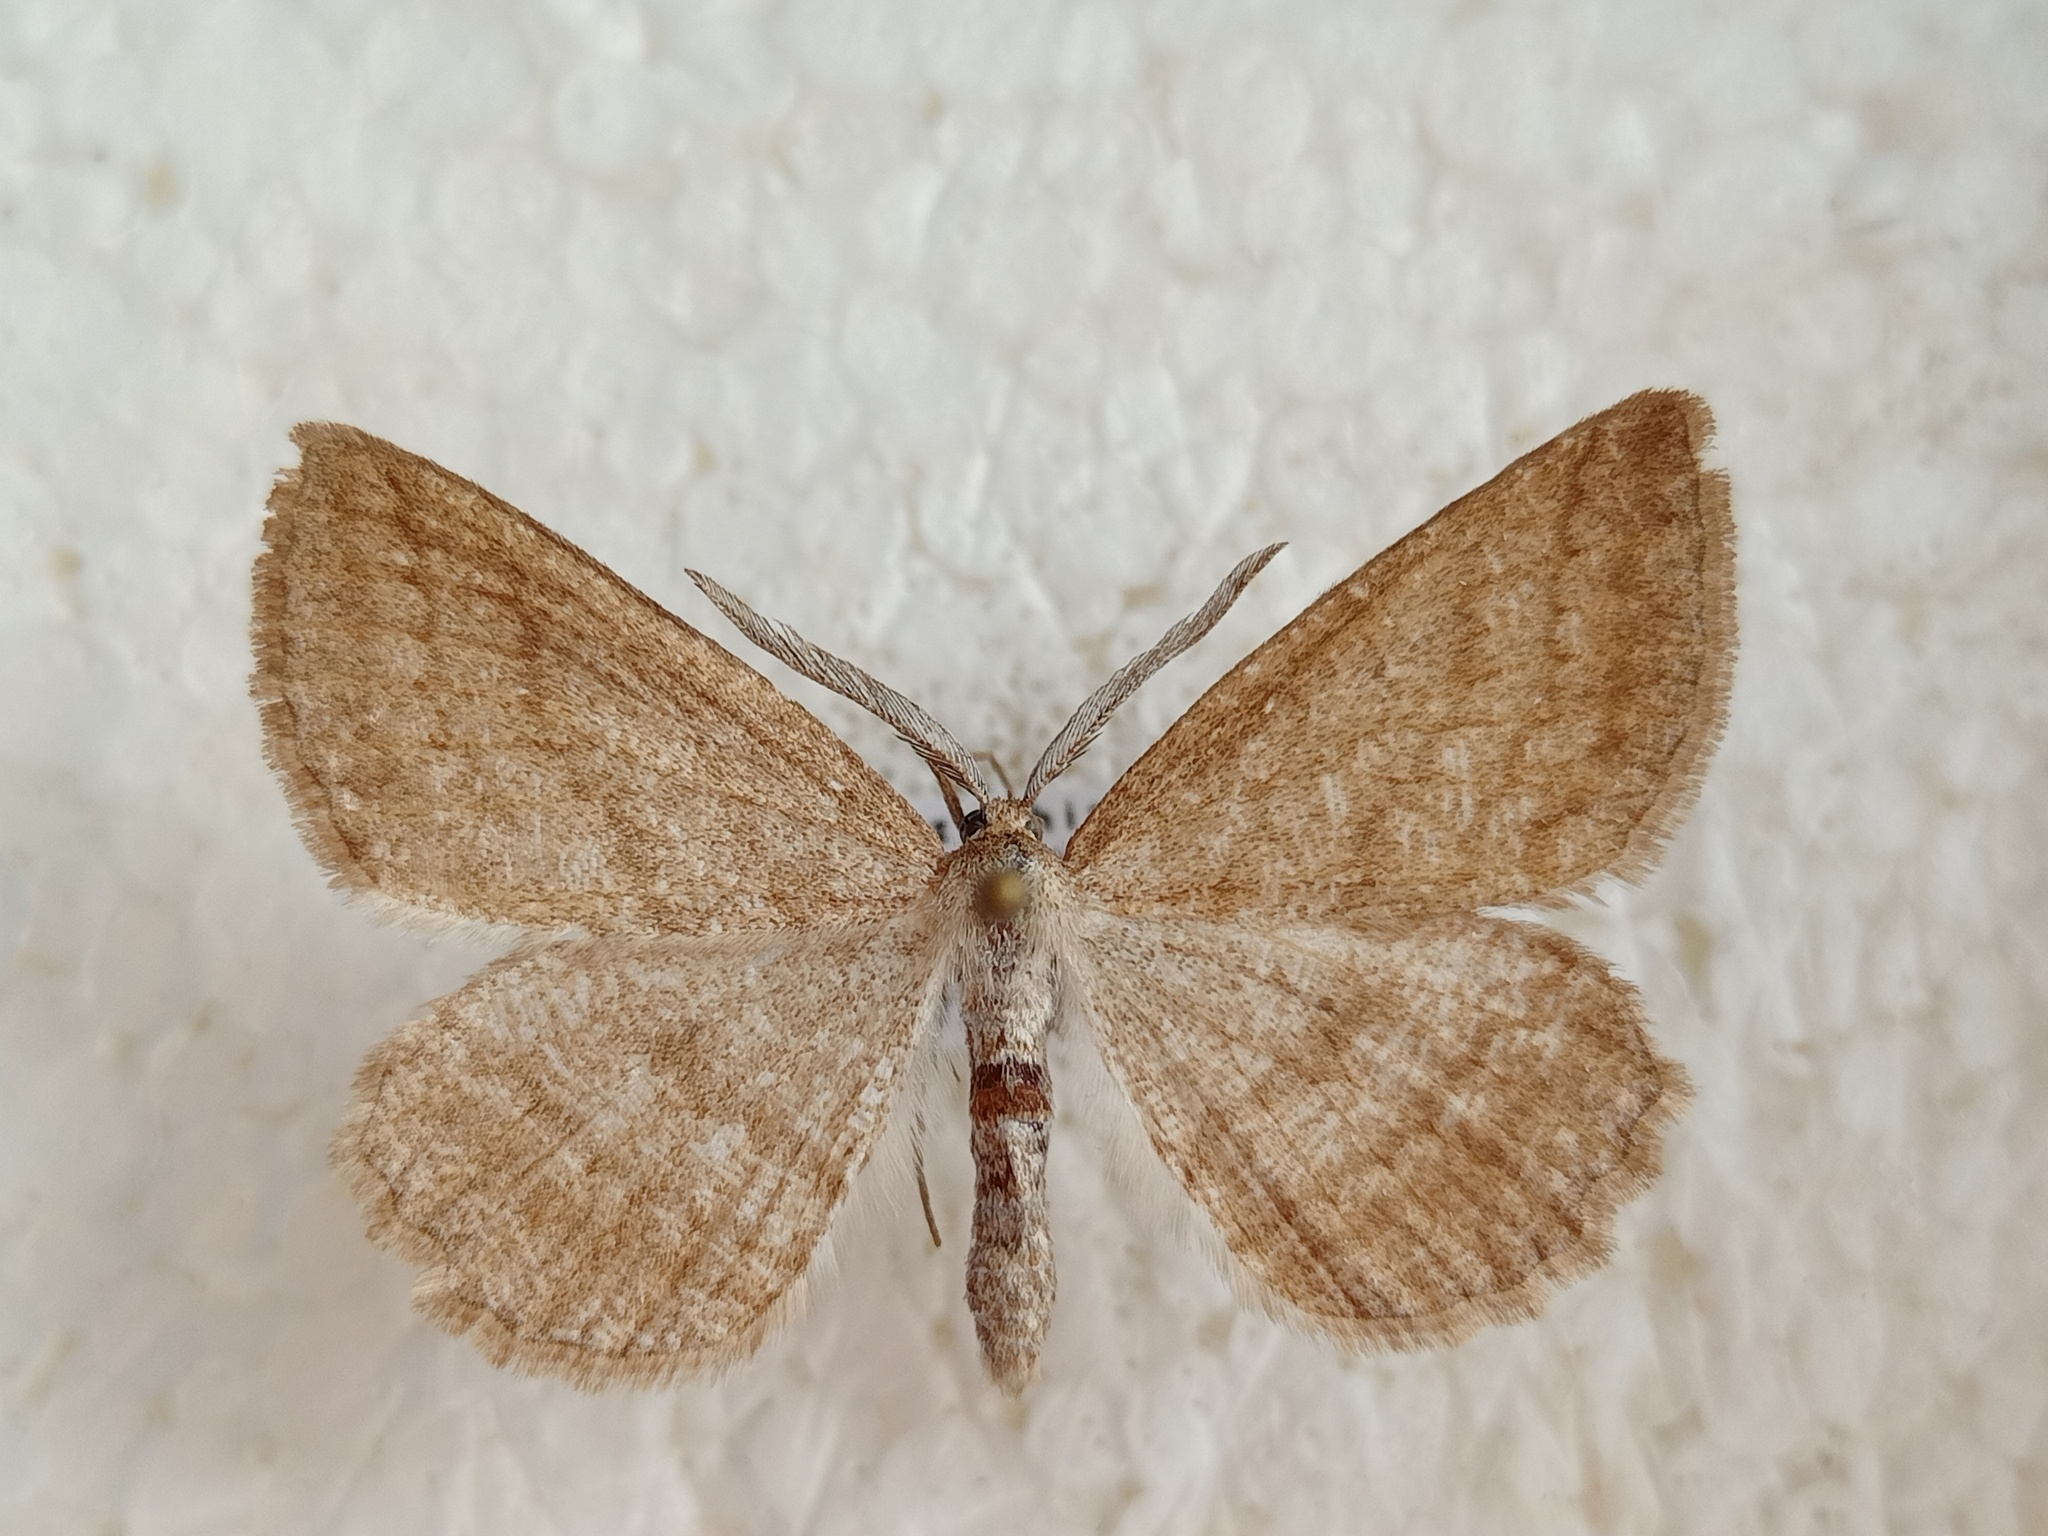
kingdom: Animalia
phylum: Arthropoda
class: Insecta
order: Lepidoptera
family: Geometridae
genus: Perconia
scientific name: Perconia strigillaria
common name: Grass wave
